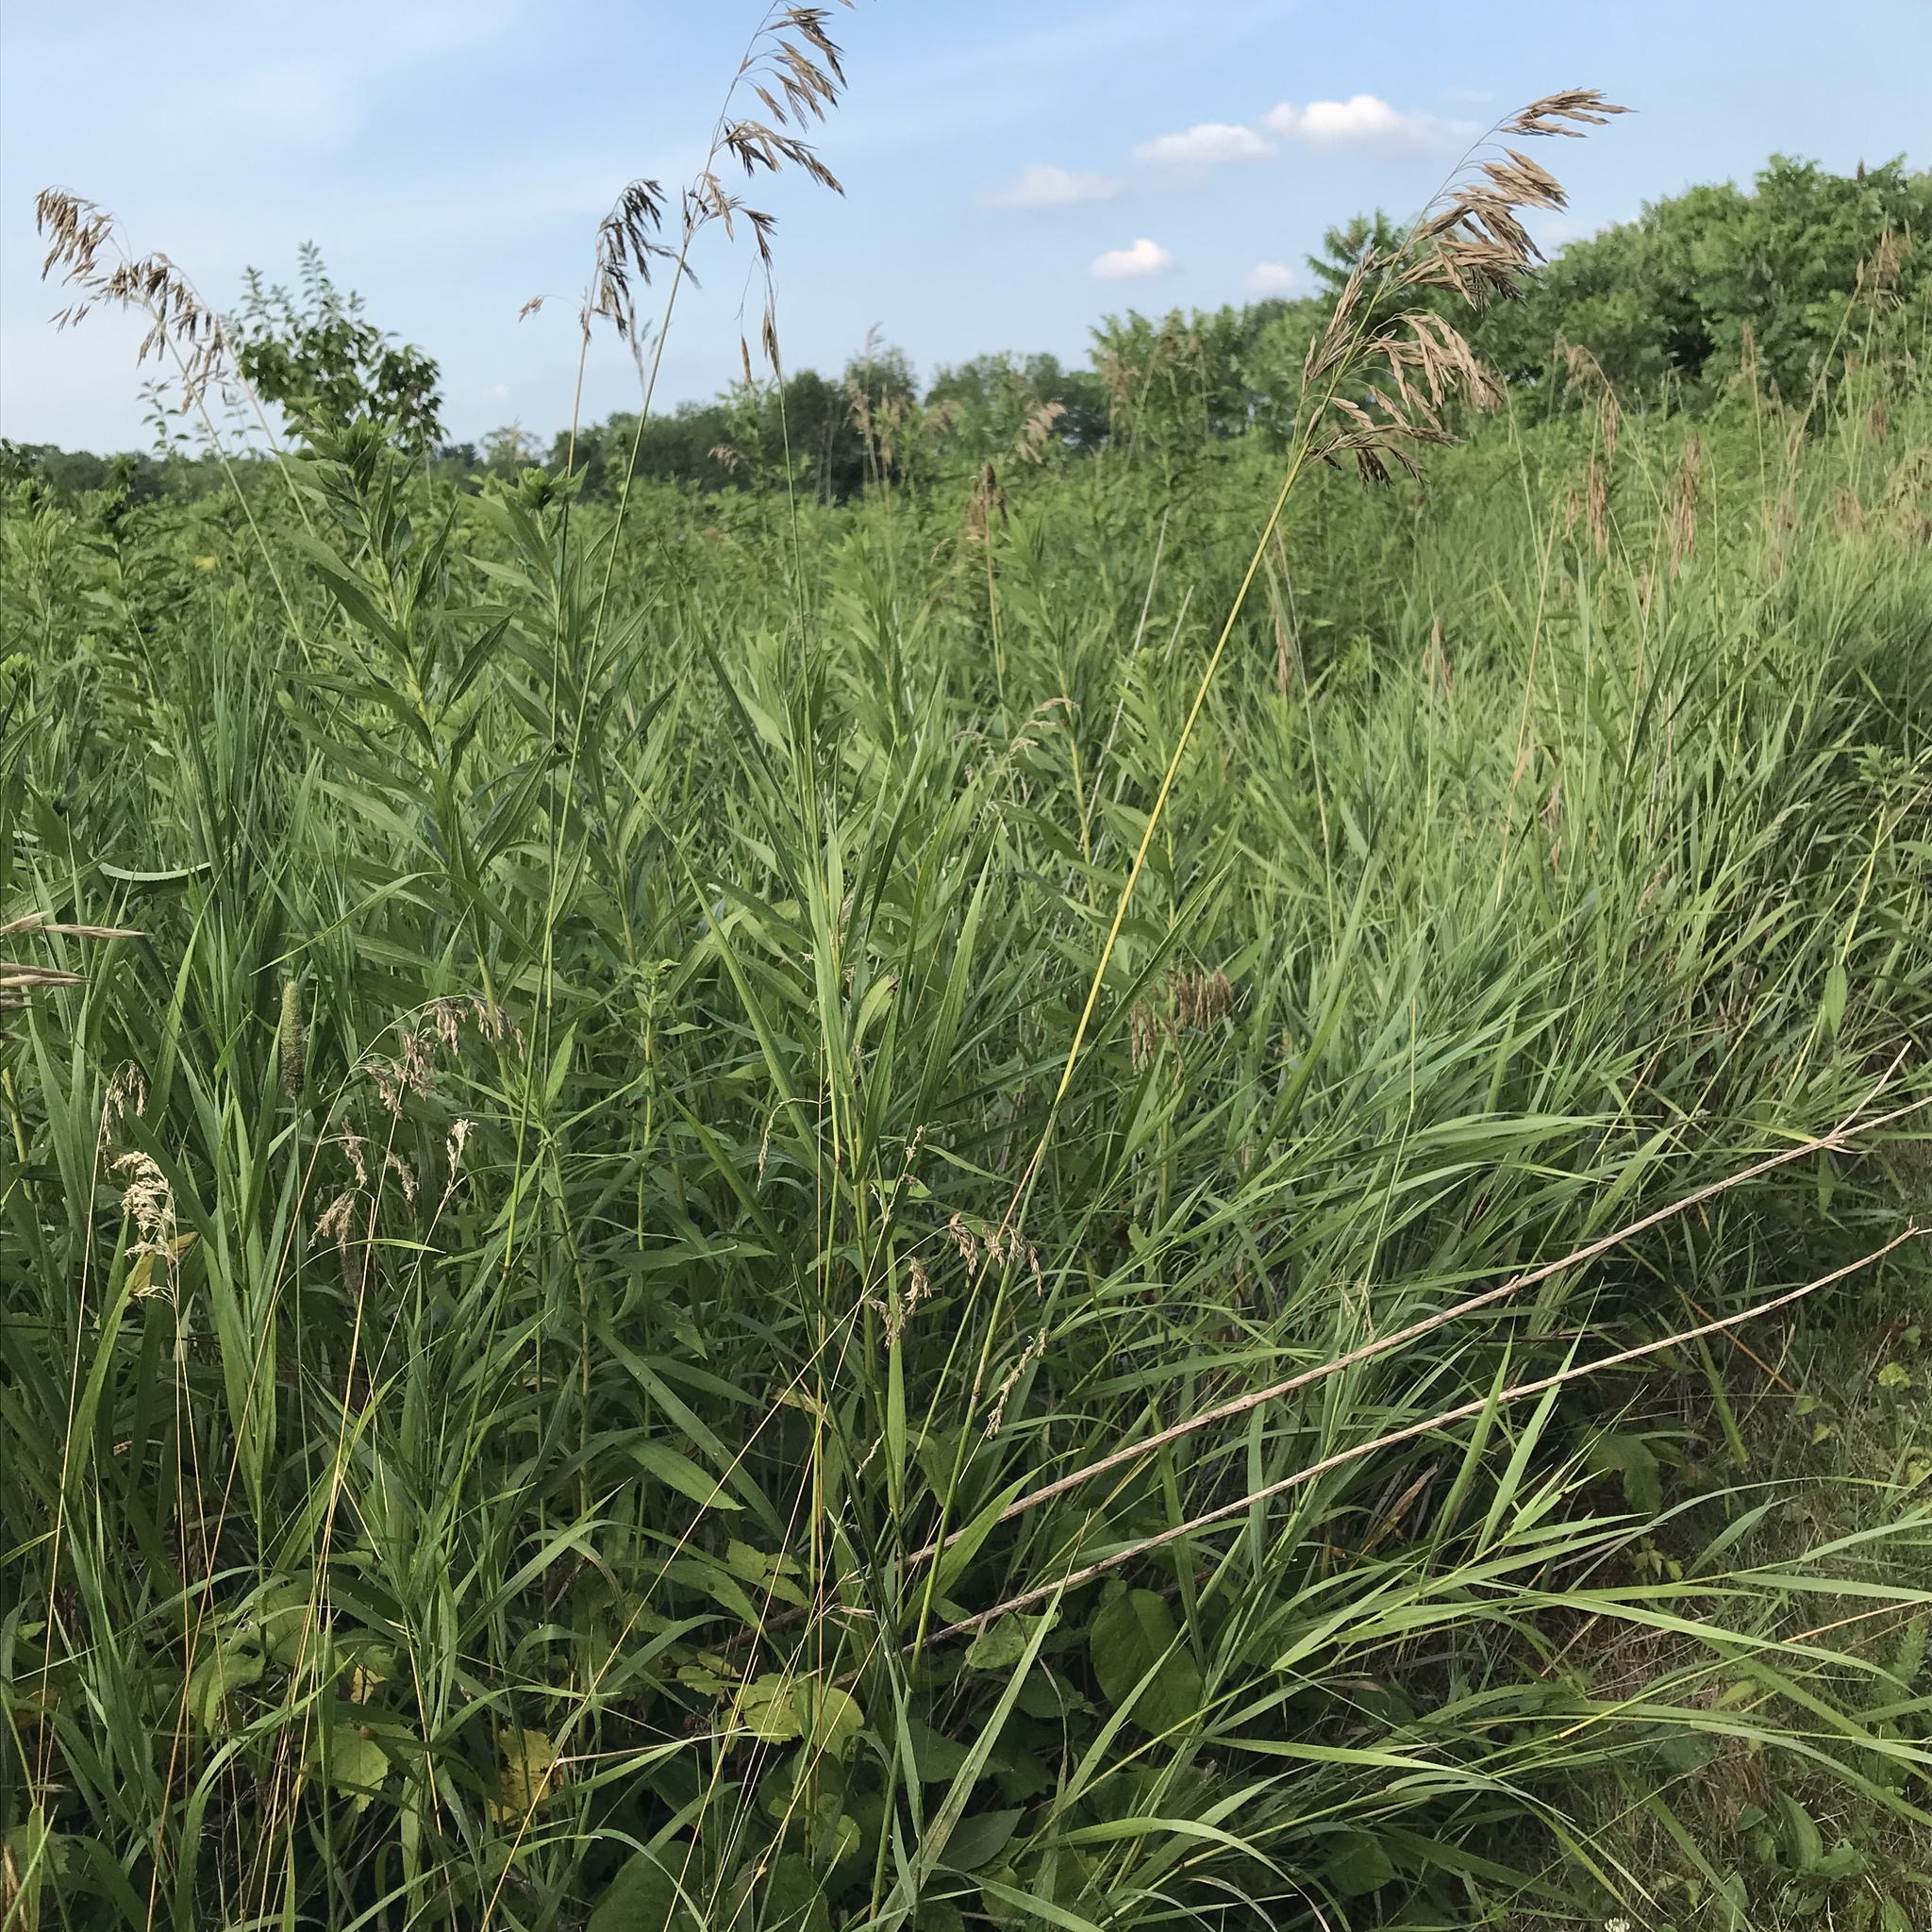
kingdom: Plantae
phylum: Tracheophyta
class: Liliopsida
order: Poales
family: Poaceae
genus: Bromus
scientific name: Bromus inermis
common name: Smooth brome
